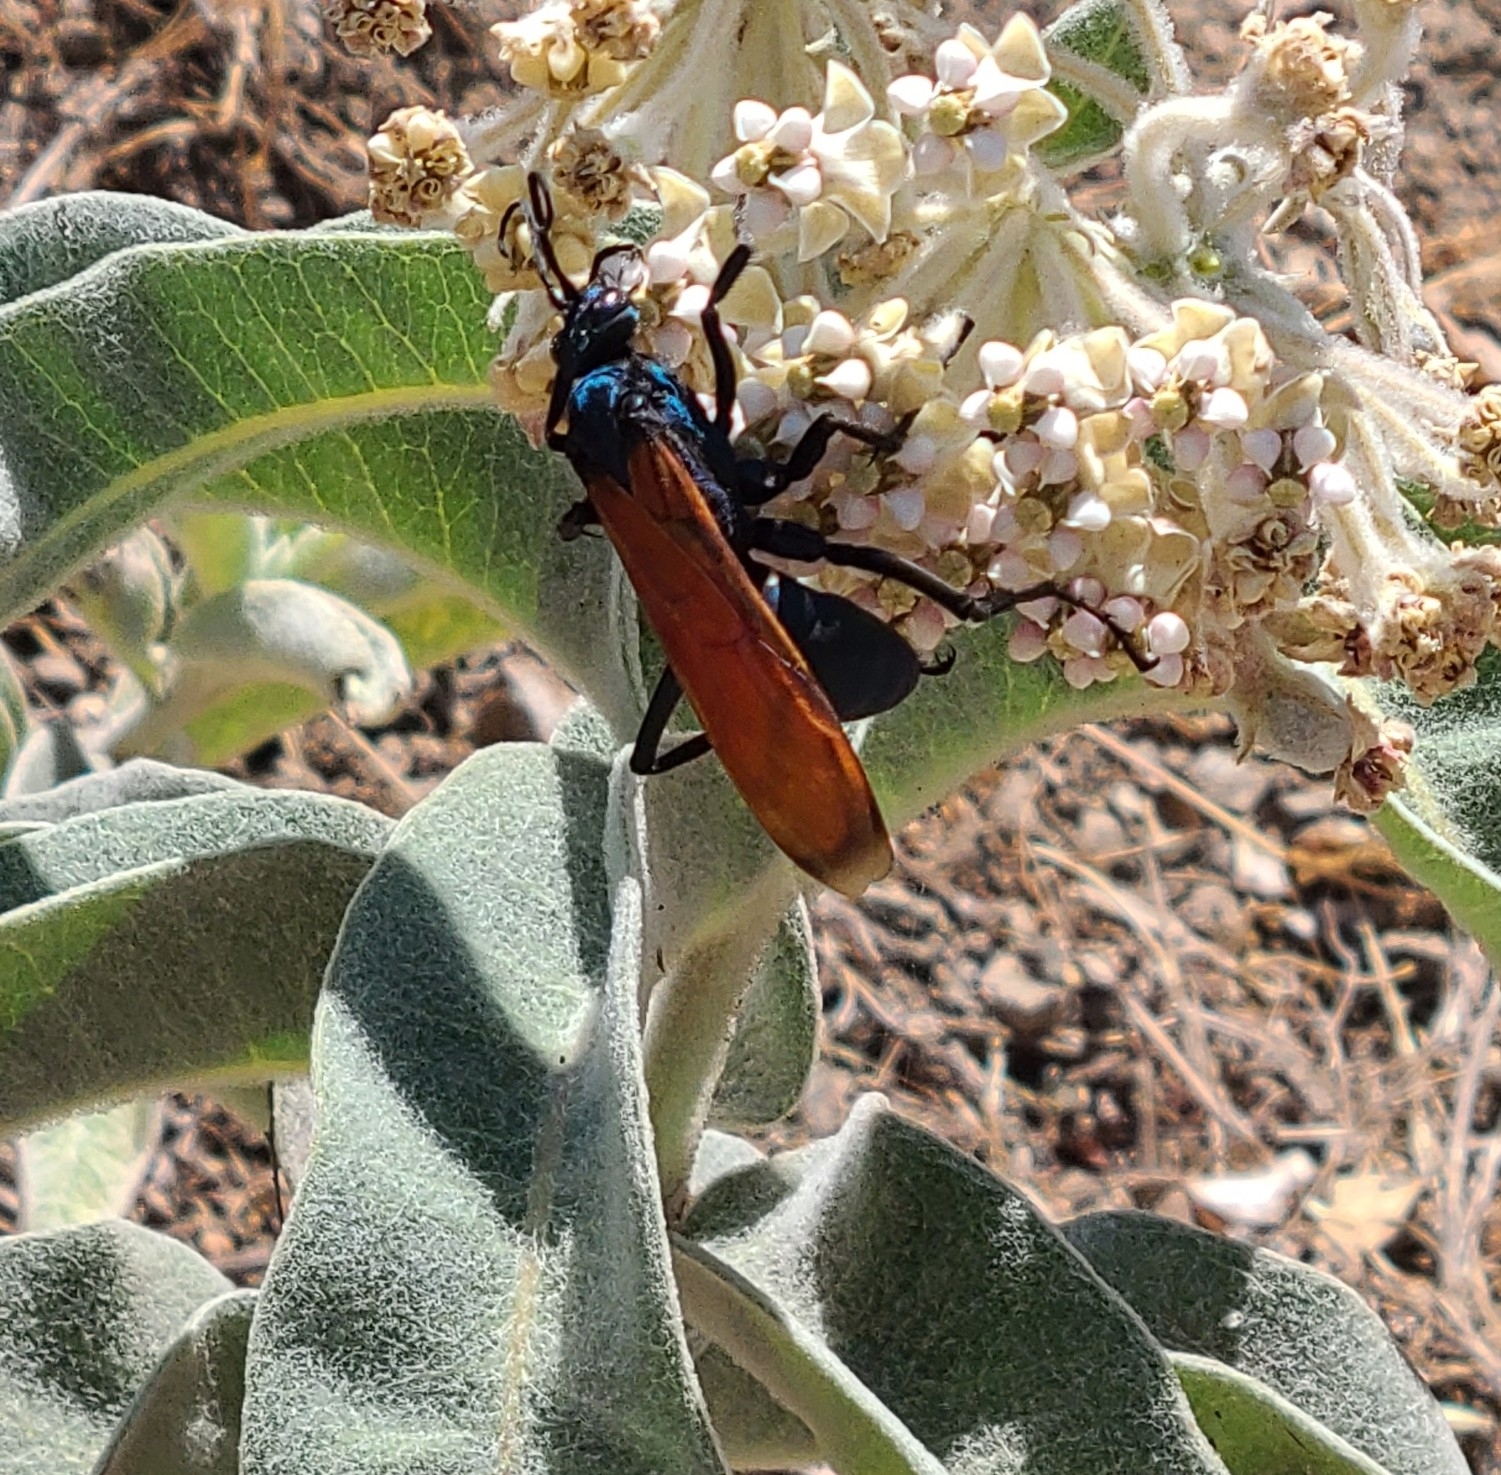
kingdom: Animalia
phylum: Arthropoda
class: Insecta
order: Hymenoptera
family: Pompilidae
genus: Pepsis
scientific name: Pepsis thisbe
